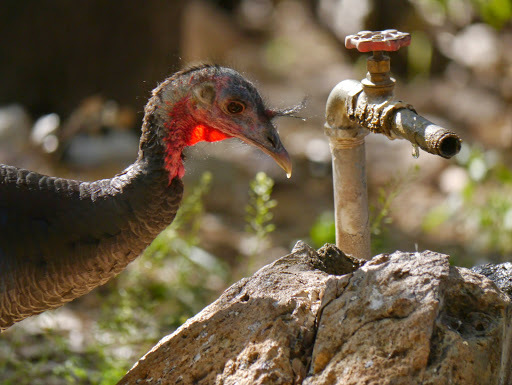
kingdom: Animalia
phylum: Chordata
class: Aves
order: Galliformes
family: Phasianidae
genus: Meleagris
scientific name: Meleagris gallopavo
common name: Wild turkey
